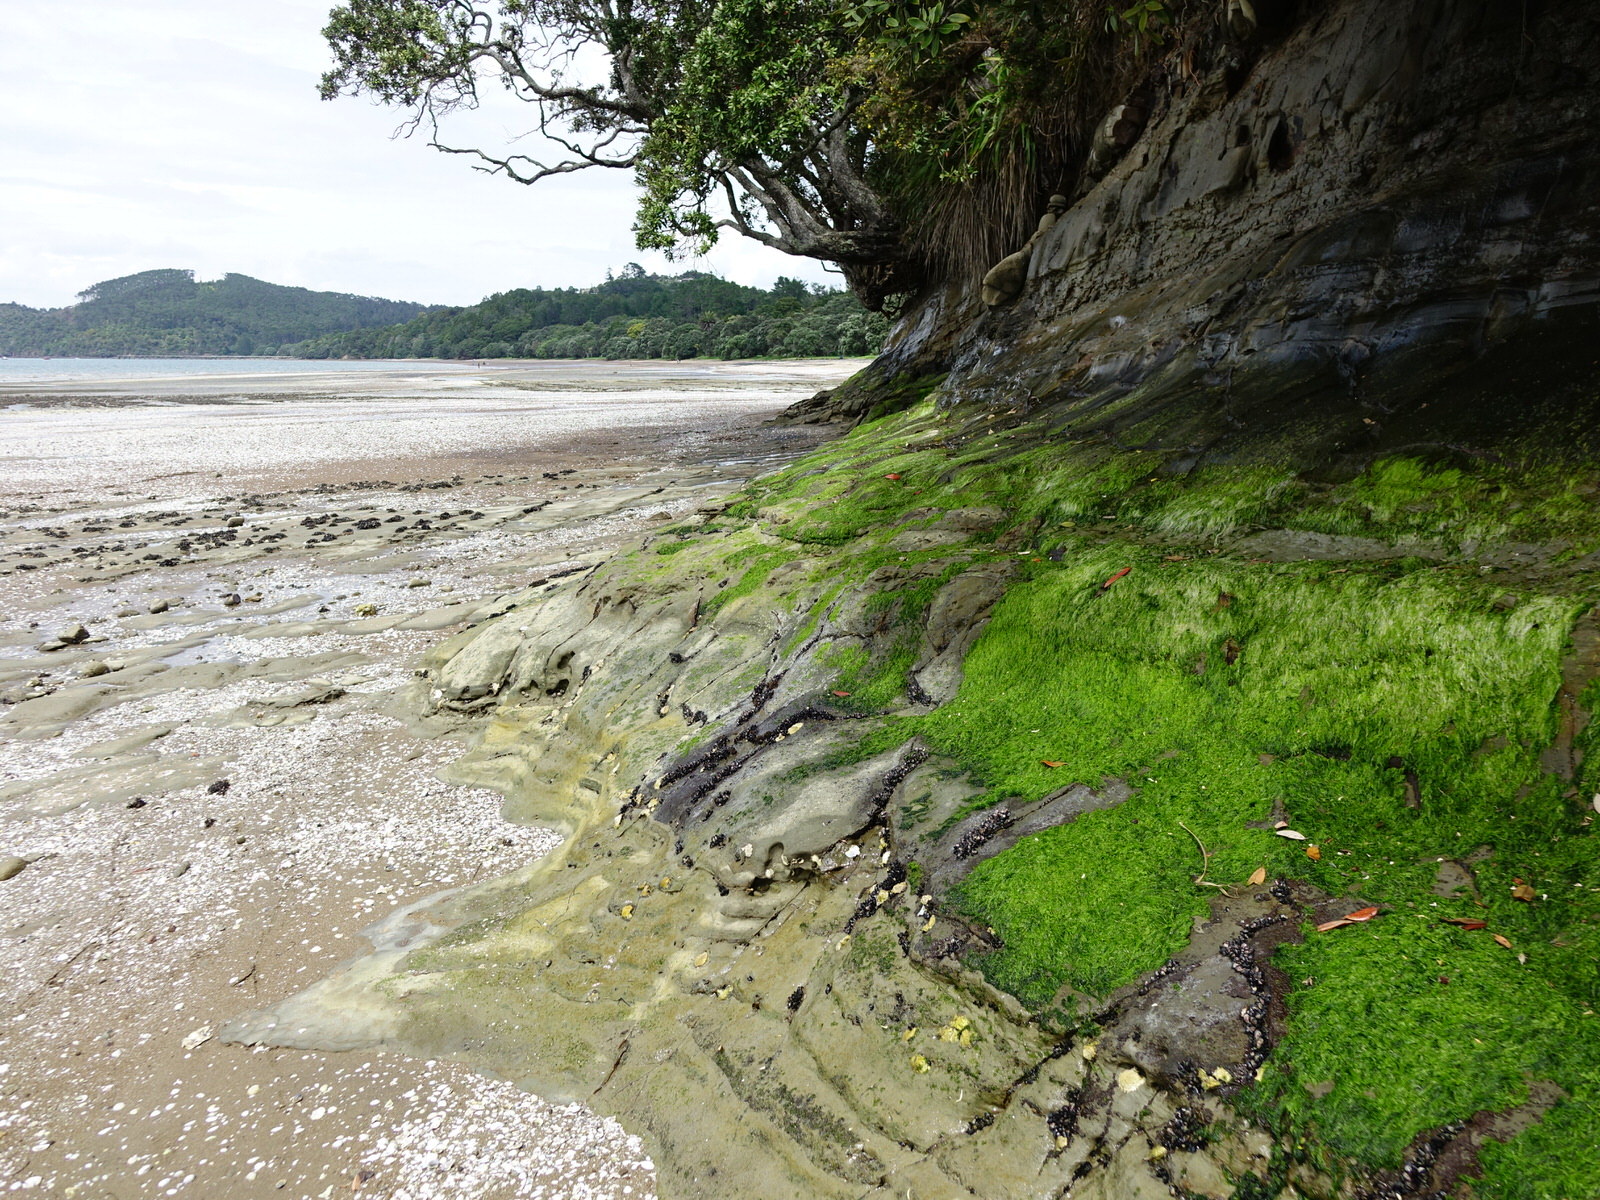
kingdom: Plantae
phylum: Chlorophyta
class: Ulvophyceae
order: Ulvales
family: Ulvaceae
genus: Ulva
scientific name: Ulva compressa
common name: Thread weed
